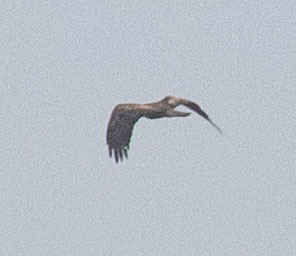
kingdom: Animalia
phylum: Chordata
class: Aves
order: Accipitriformes
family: Accipitridae
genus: Aquila
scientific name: Aquila chrysaetos
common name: Golden eagle
